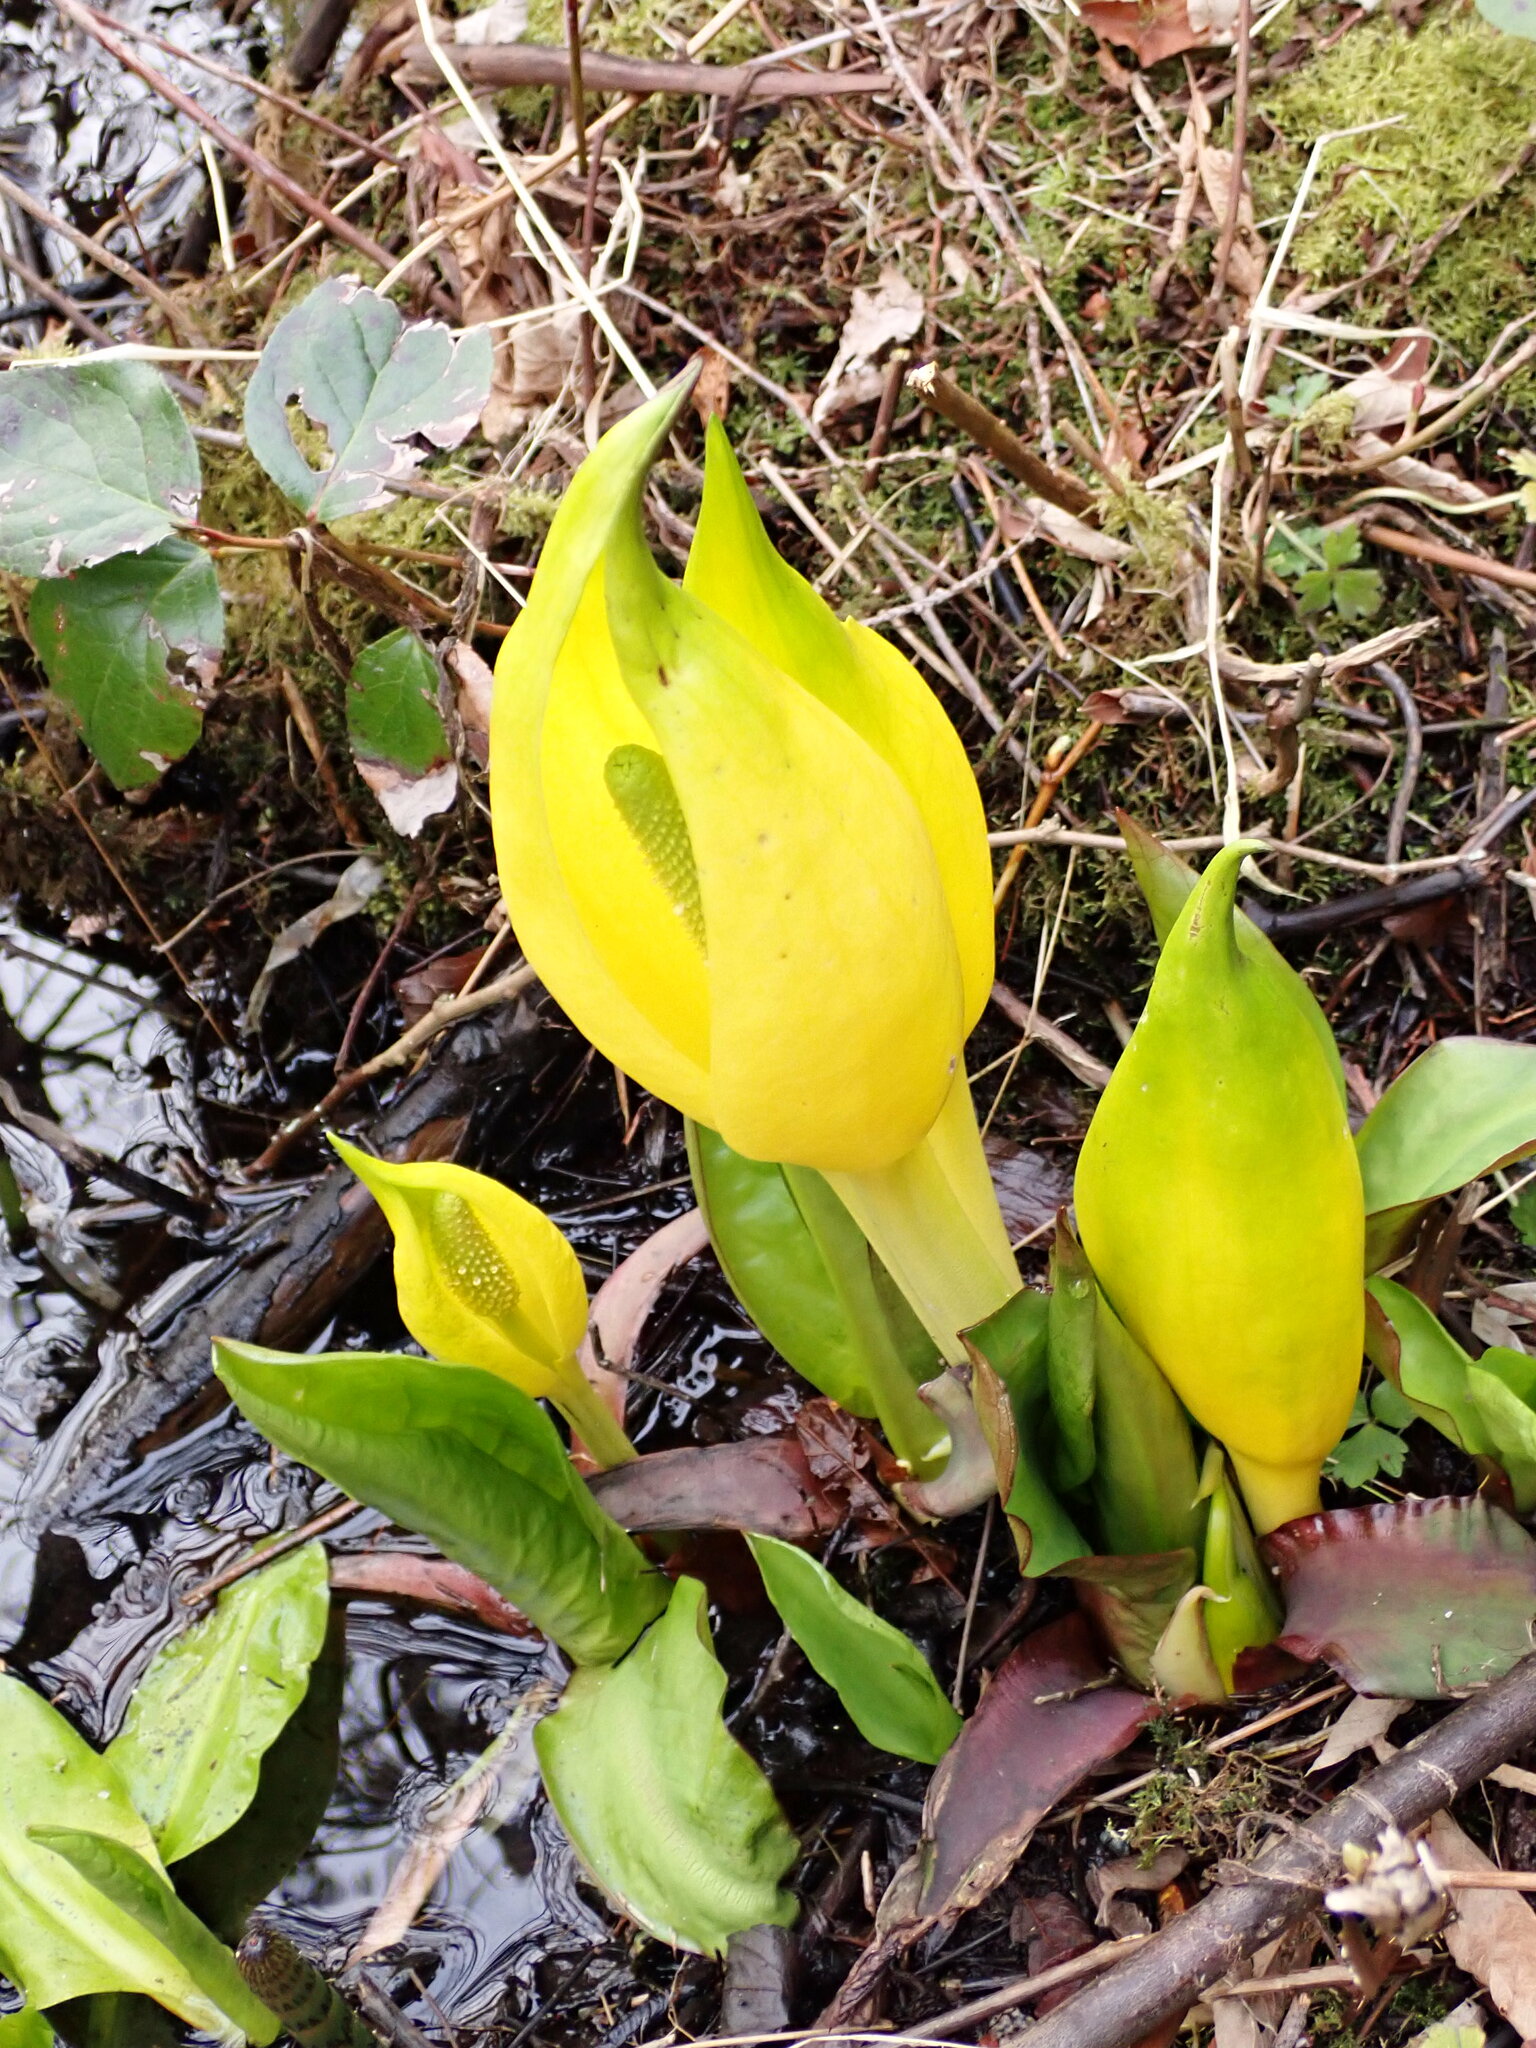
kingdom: Plantae
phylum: Tracheophyta
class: Liliopsida
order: Alismatales
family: Araceae
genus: Lysichiton
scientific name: Lysichiton americanus
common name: American skunk cabbage
